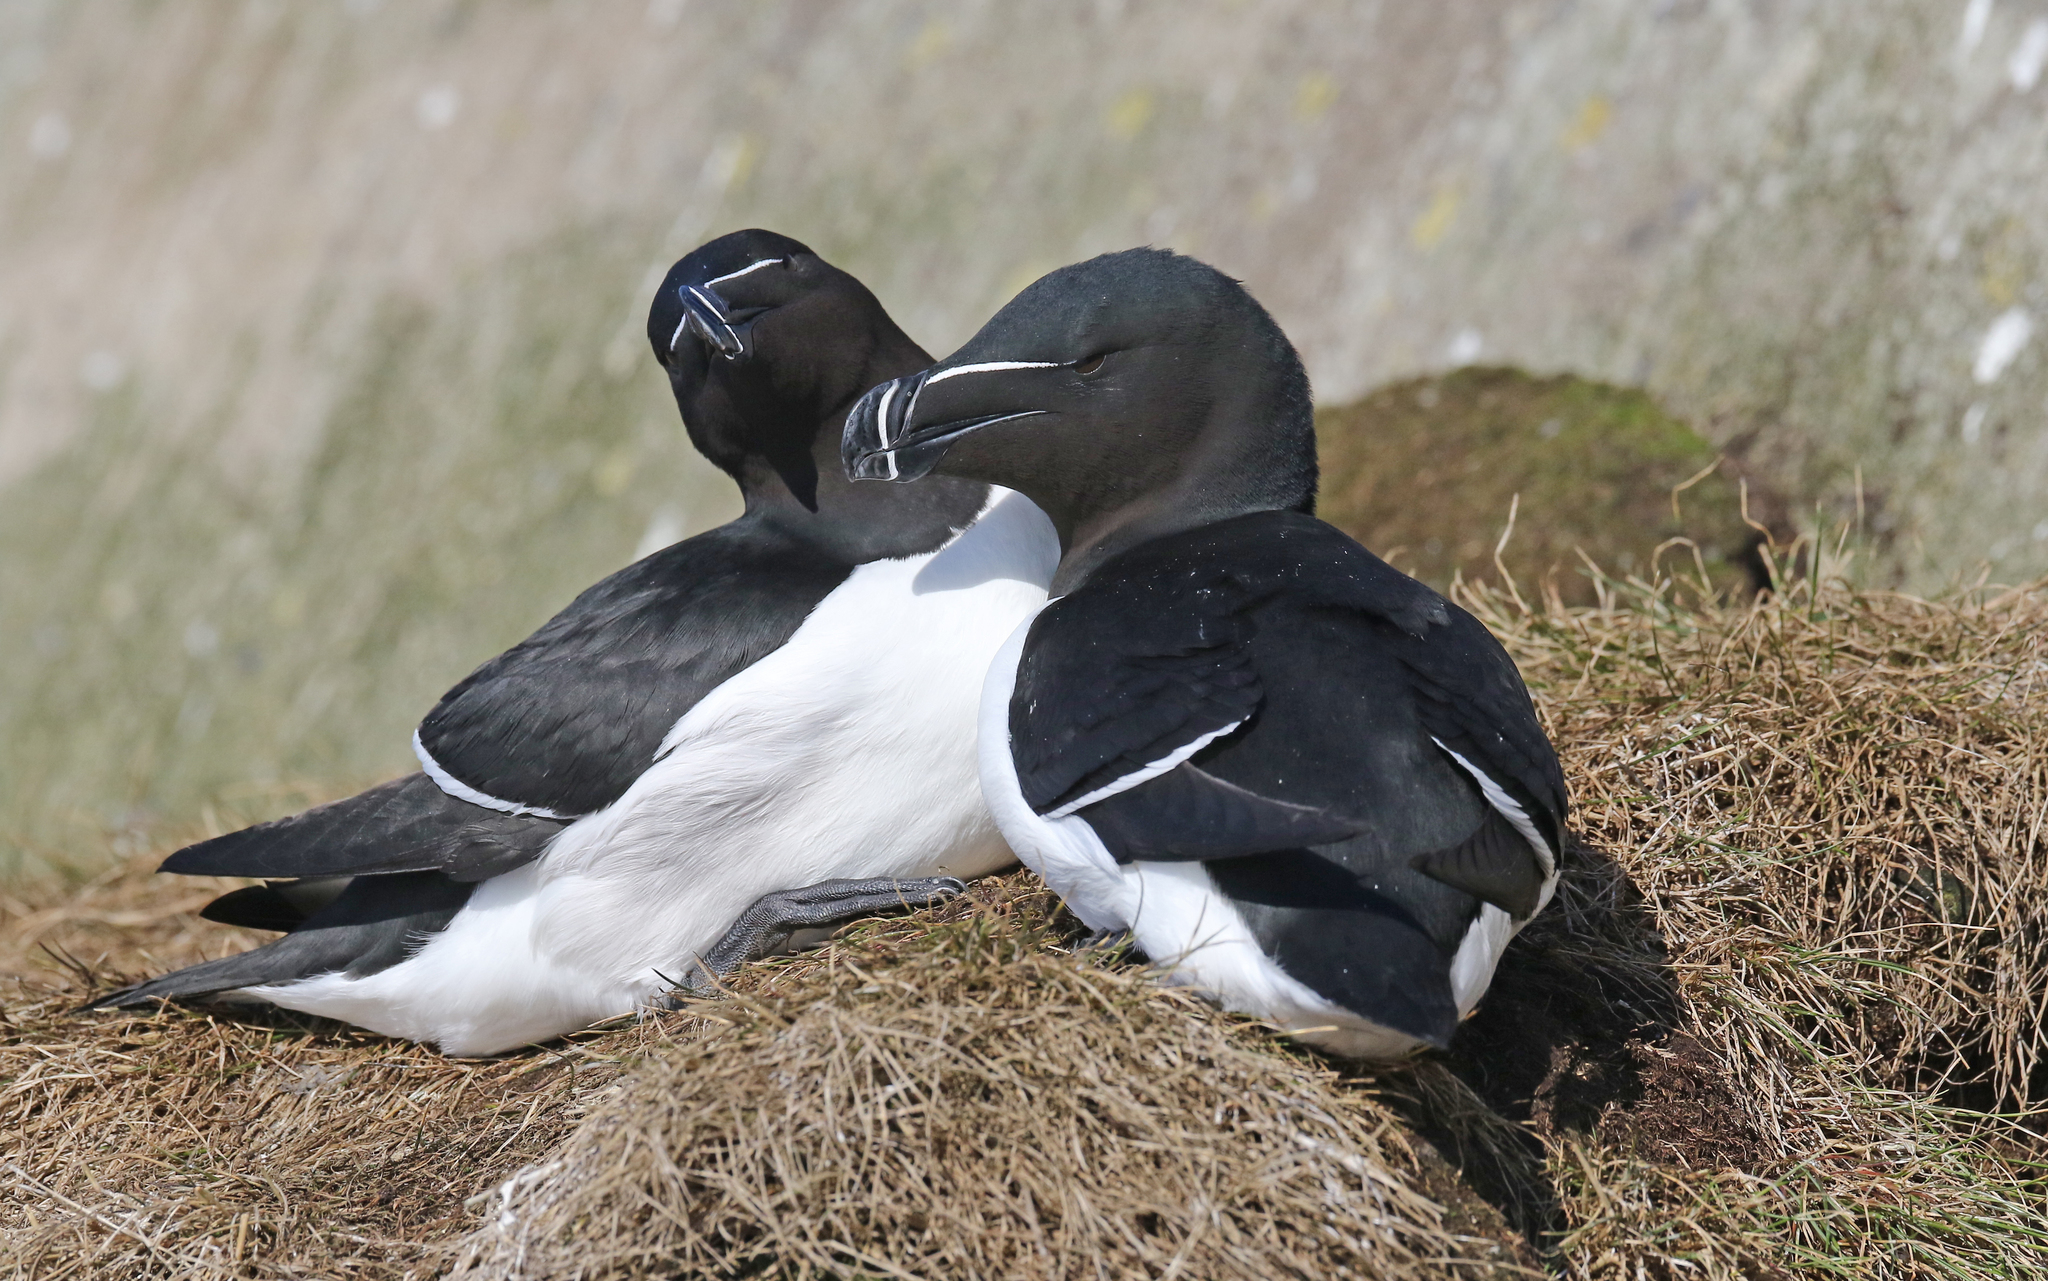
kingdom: Animalia
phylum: Chordata
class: Aves
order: Charadriiformes
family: Alcidae
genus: Alca
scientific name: Alca torda
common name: Razorbill
